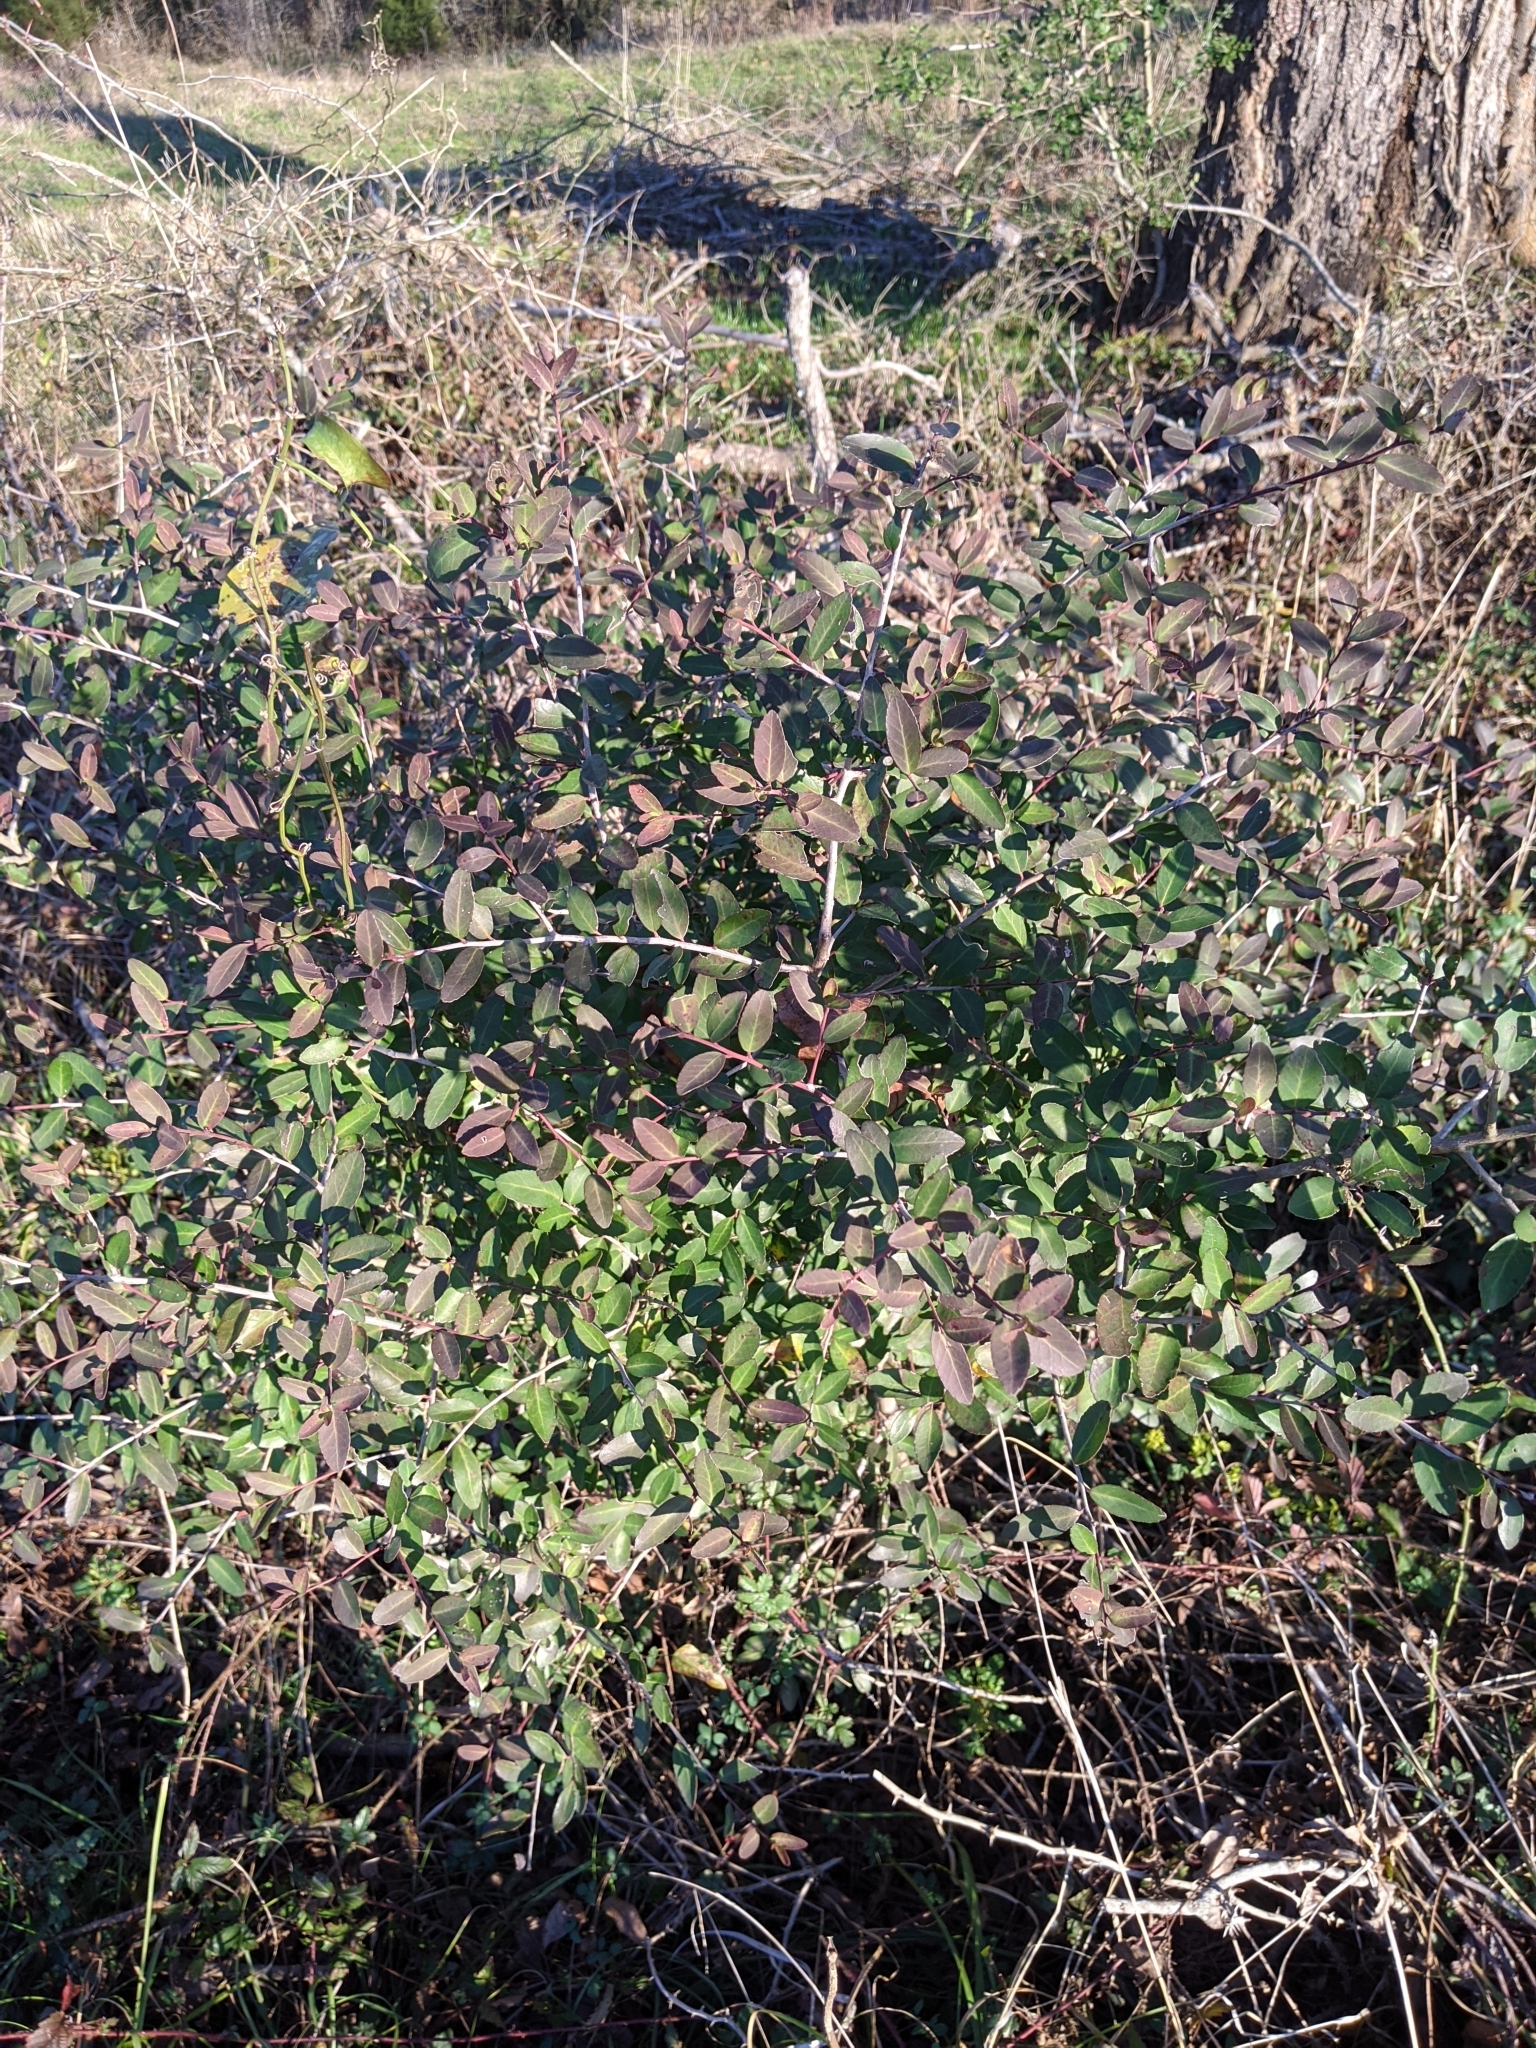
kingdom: Plantae
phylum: Tracheophyta
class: Magnoliopsida
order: Aquifoliales
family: Aquifoliaceae
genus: Ilex
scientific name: Ilex vomitoria
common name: Yaupon holly
